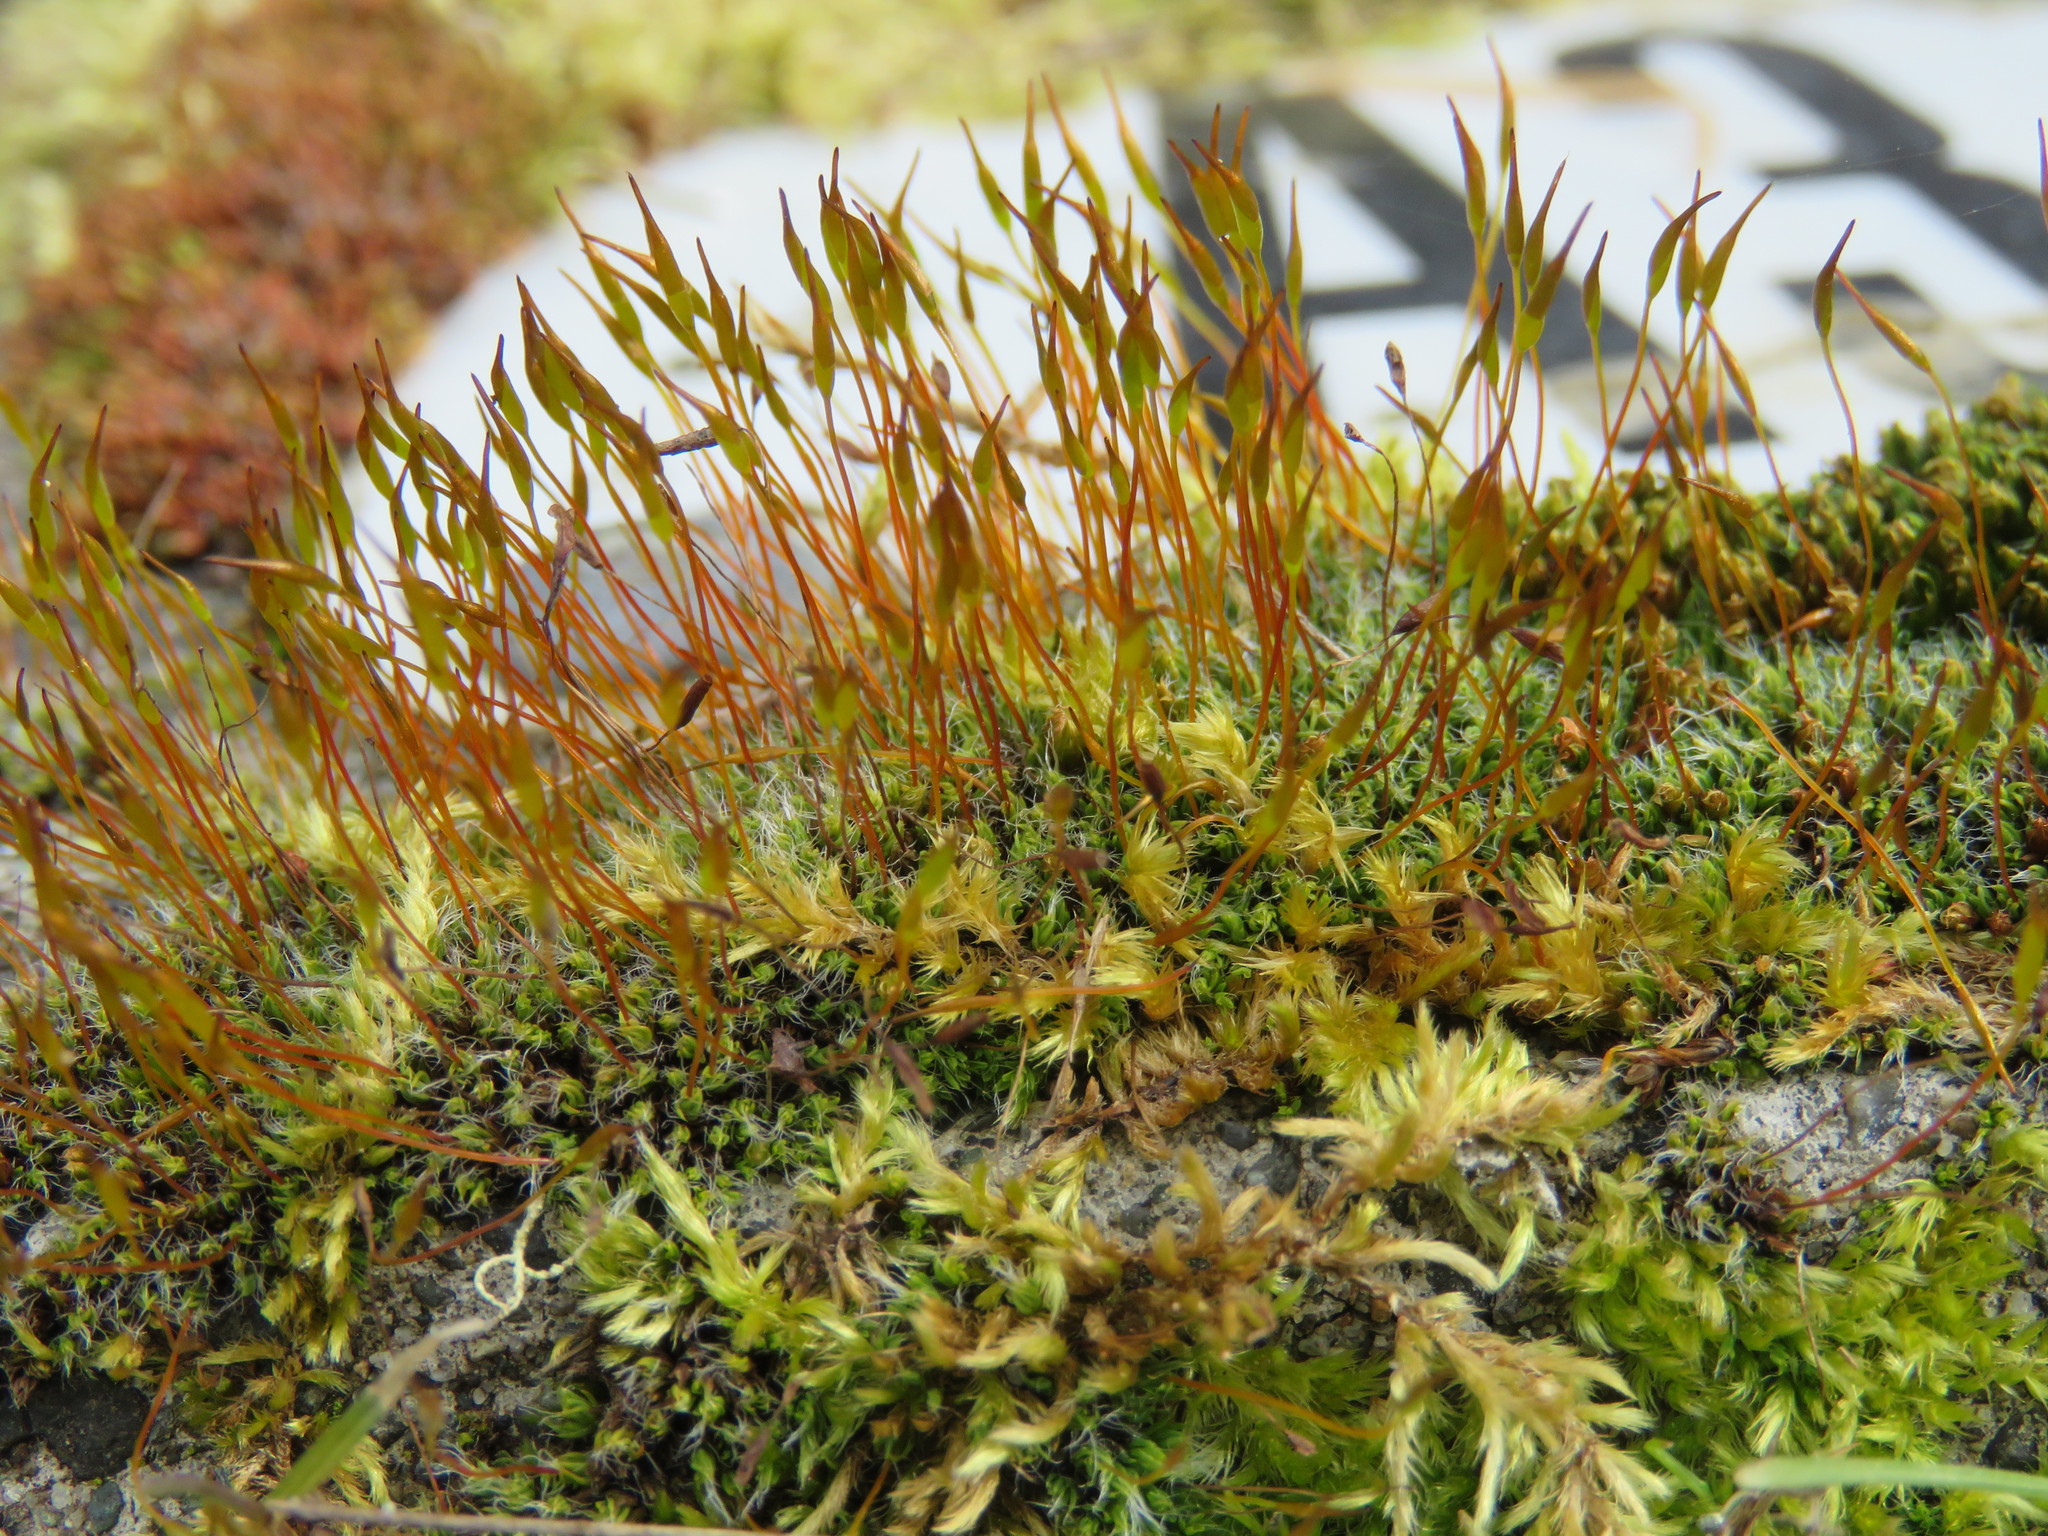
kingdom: Plantae
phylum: Bryophyta
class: Bryopsida
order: Pottiales
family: Pottiaceae
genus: Tortula
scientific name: Tortula muralis
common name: Wall screw-moss
